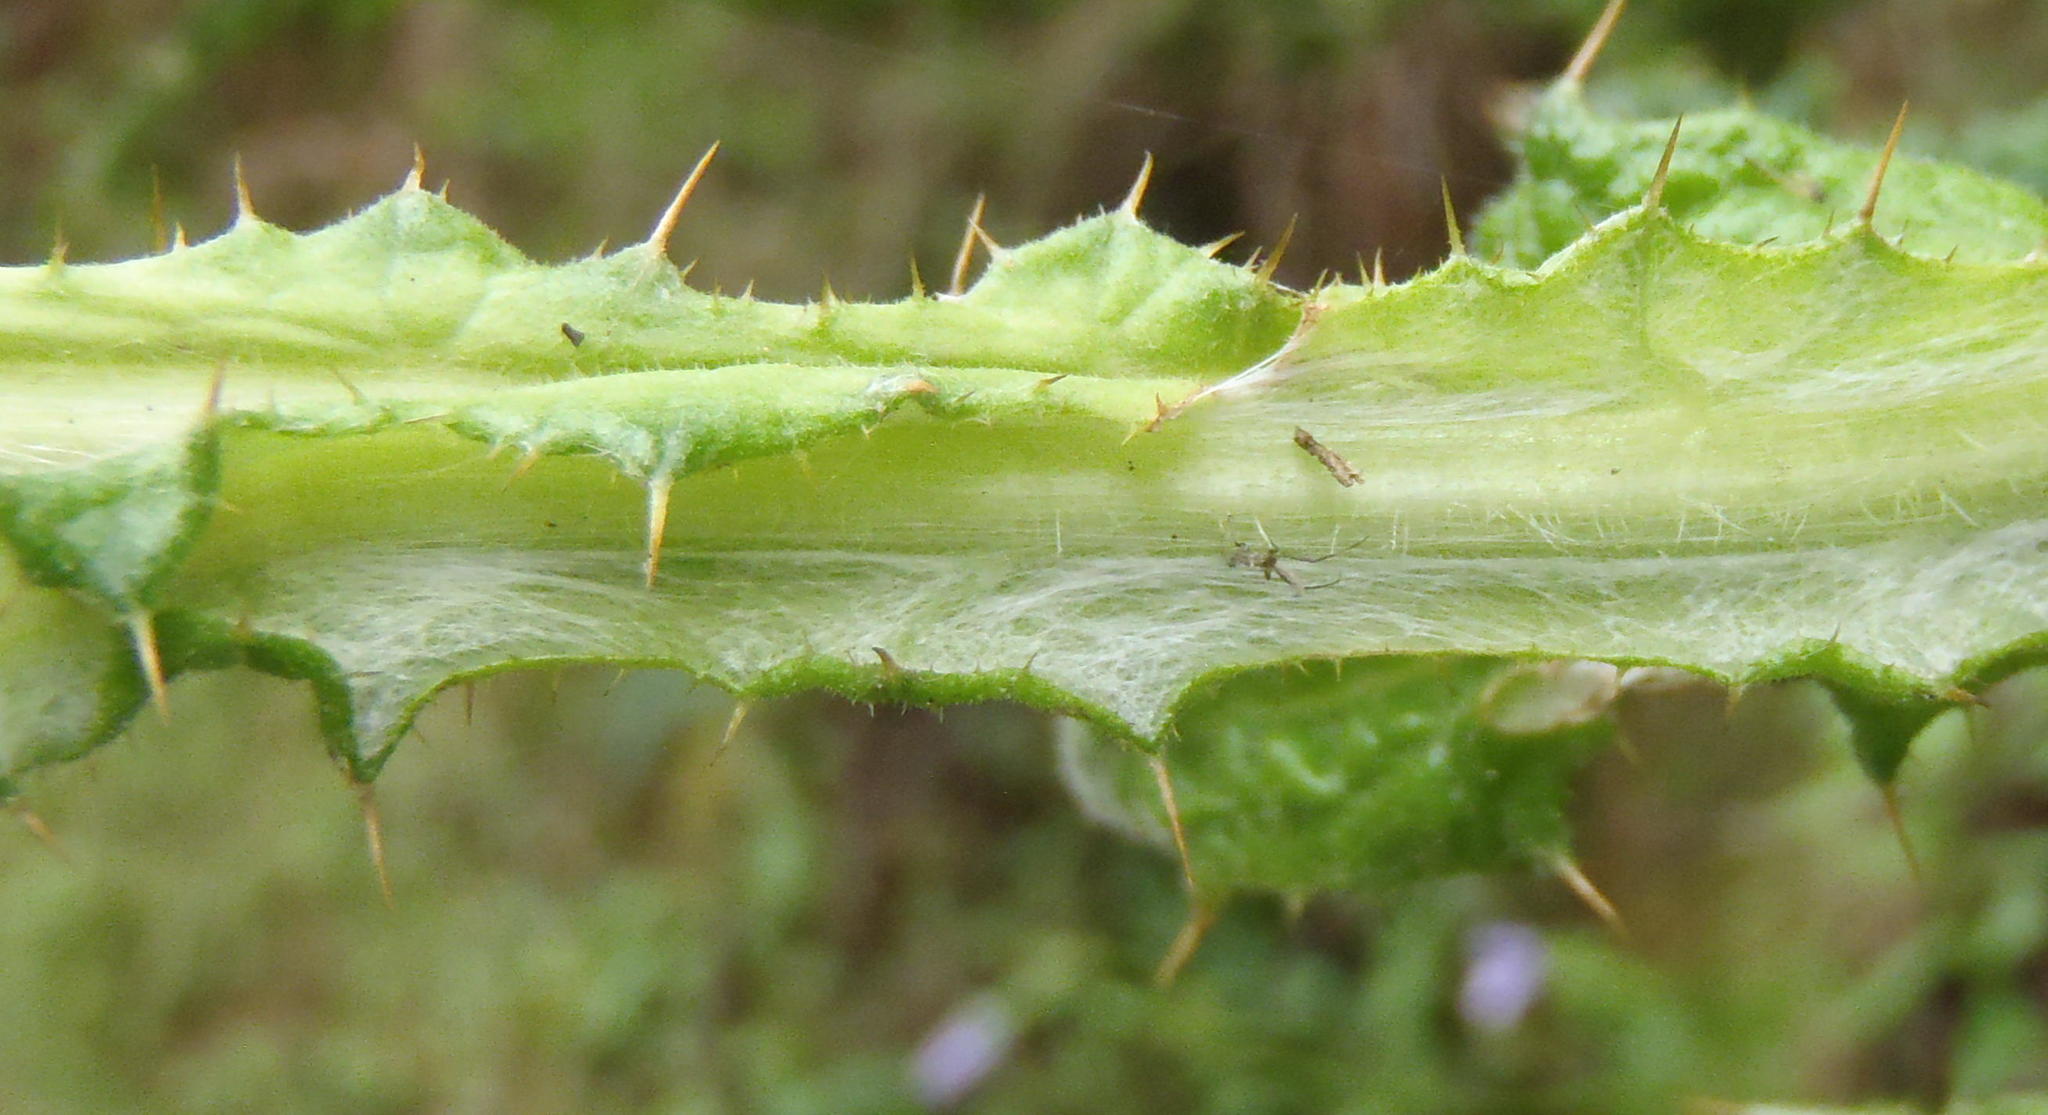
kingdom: Plantae
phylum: Tracheophyta
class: Magnoliopsida
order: Asterales
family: Asteraceae
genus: Berkheya
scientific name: Berkheya decurrens
